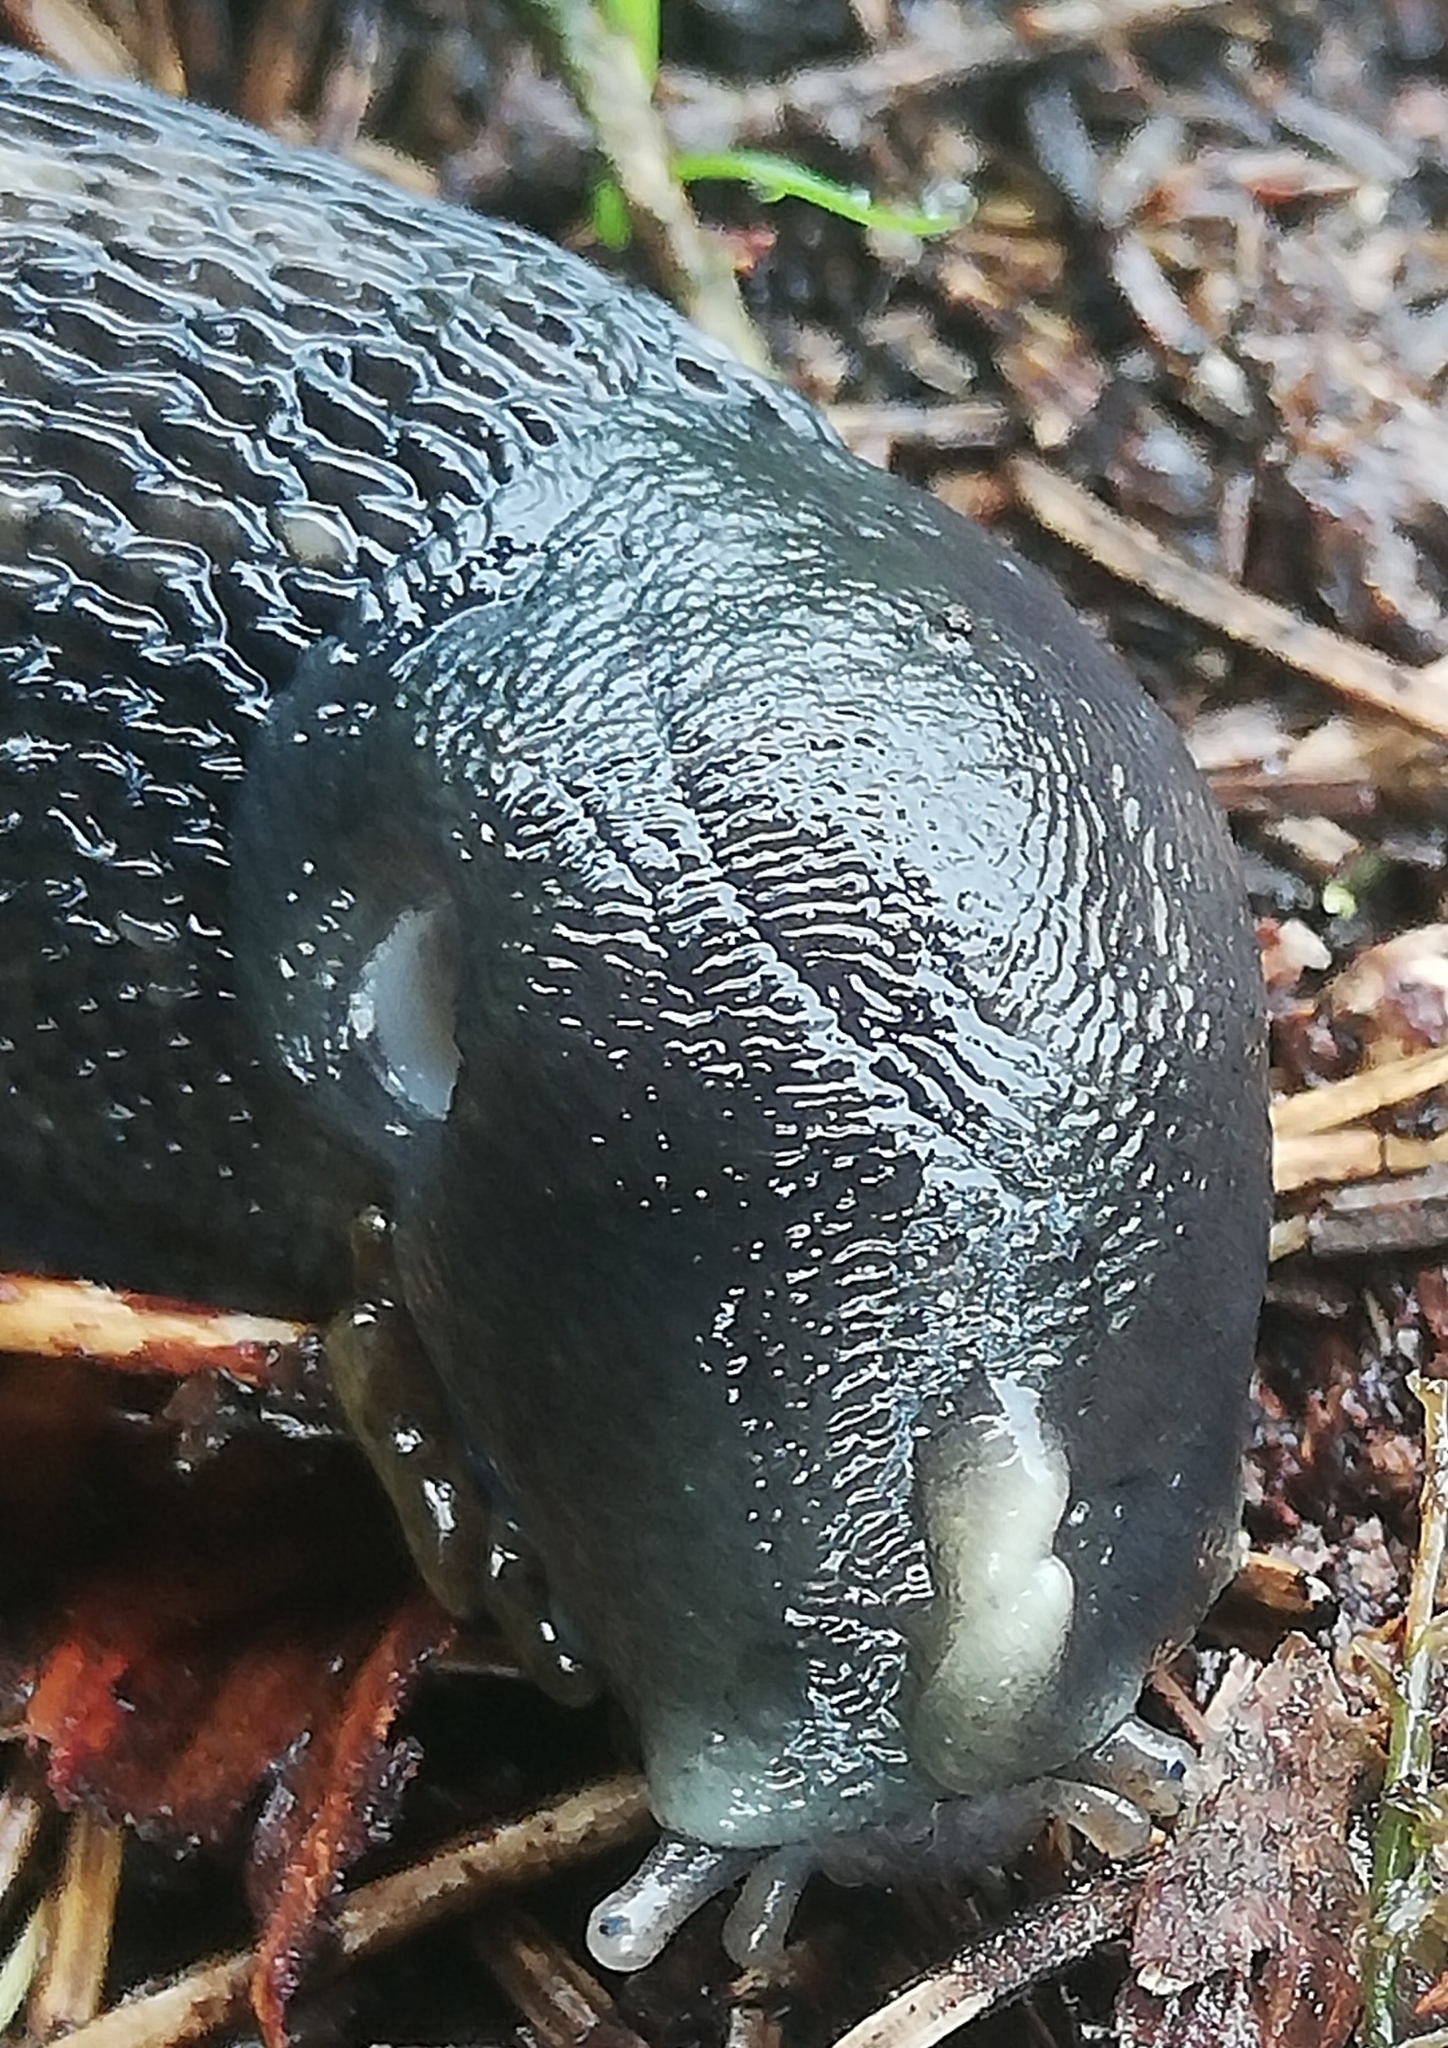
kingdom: Animalia
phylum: Mollusca
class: Gastropoda
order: Stylommatophora
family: Limacidae
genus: Limax
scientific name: Limax cinereoniger
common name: Ash-black slug
